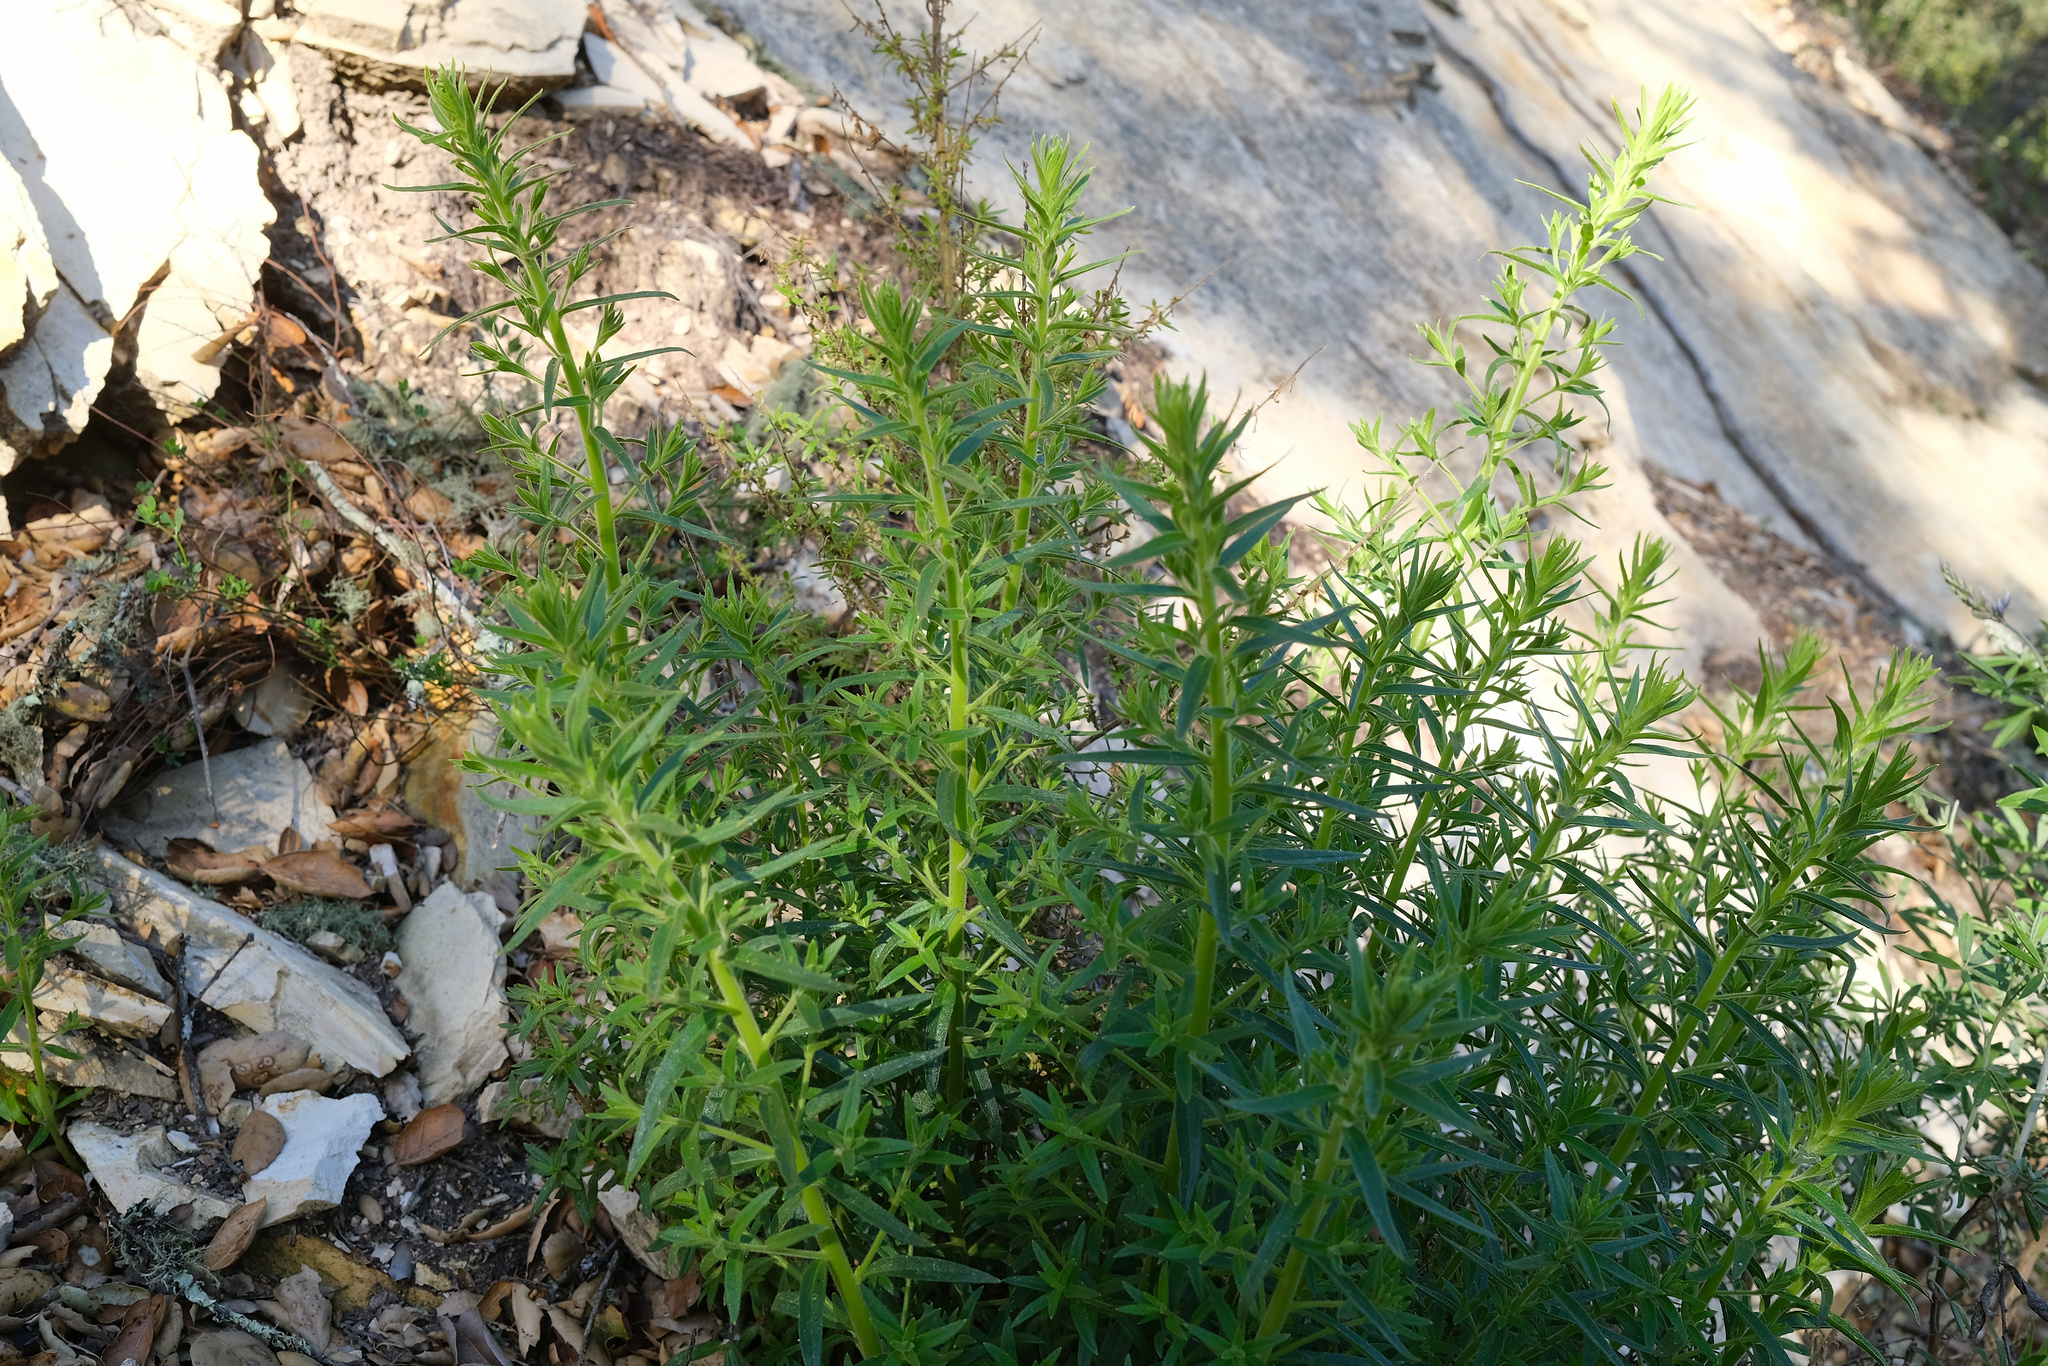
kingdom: Plantae
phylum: Tracheophyta
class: Magnoliopsida
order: Asterales
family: Asteraceae
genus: Artemisia
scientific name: Artemisia dracunculus
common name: Tarragon
